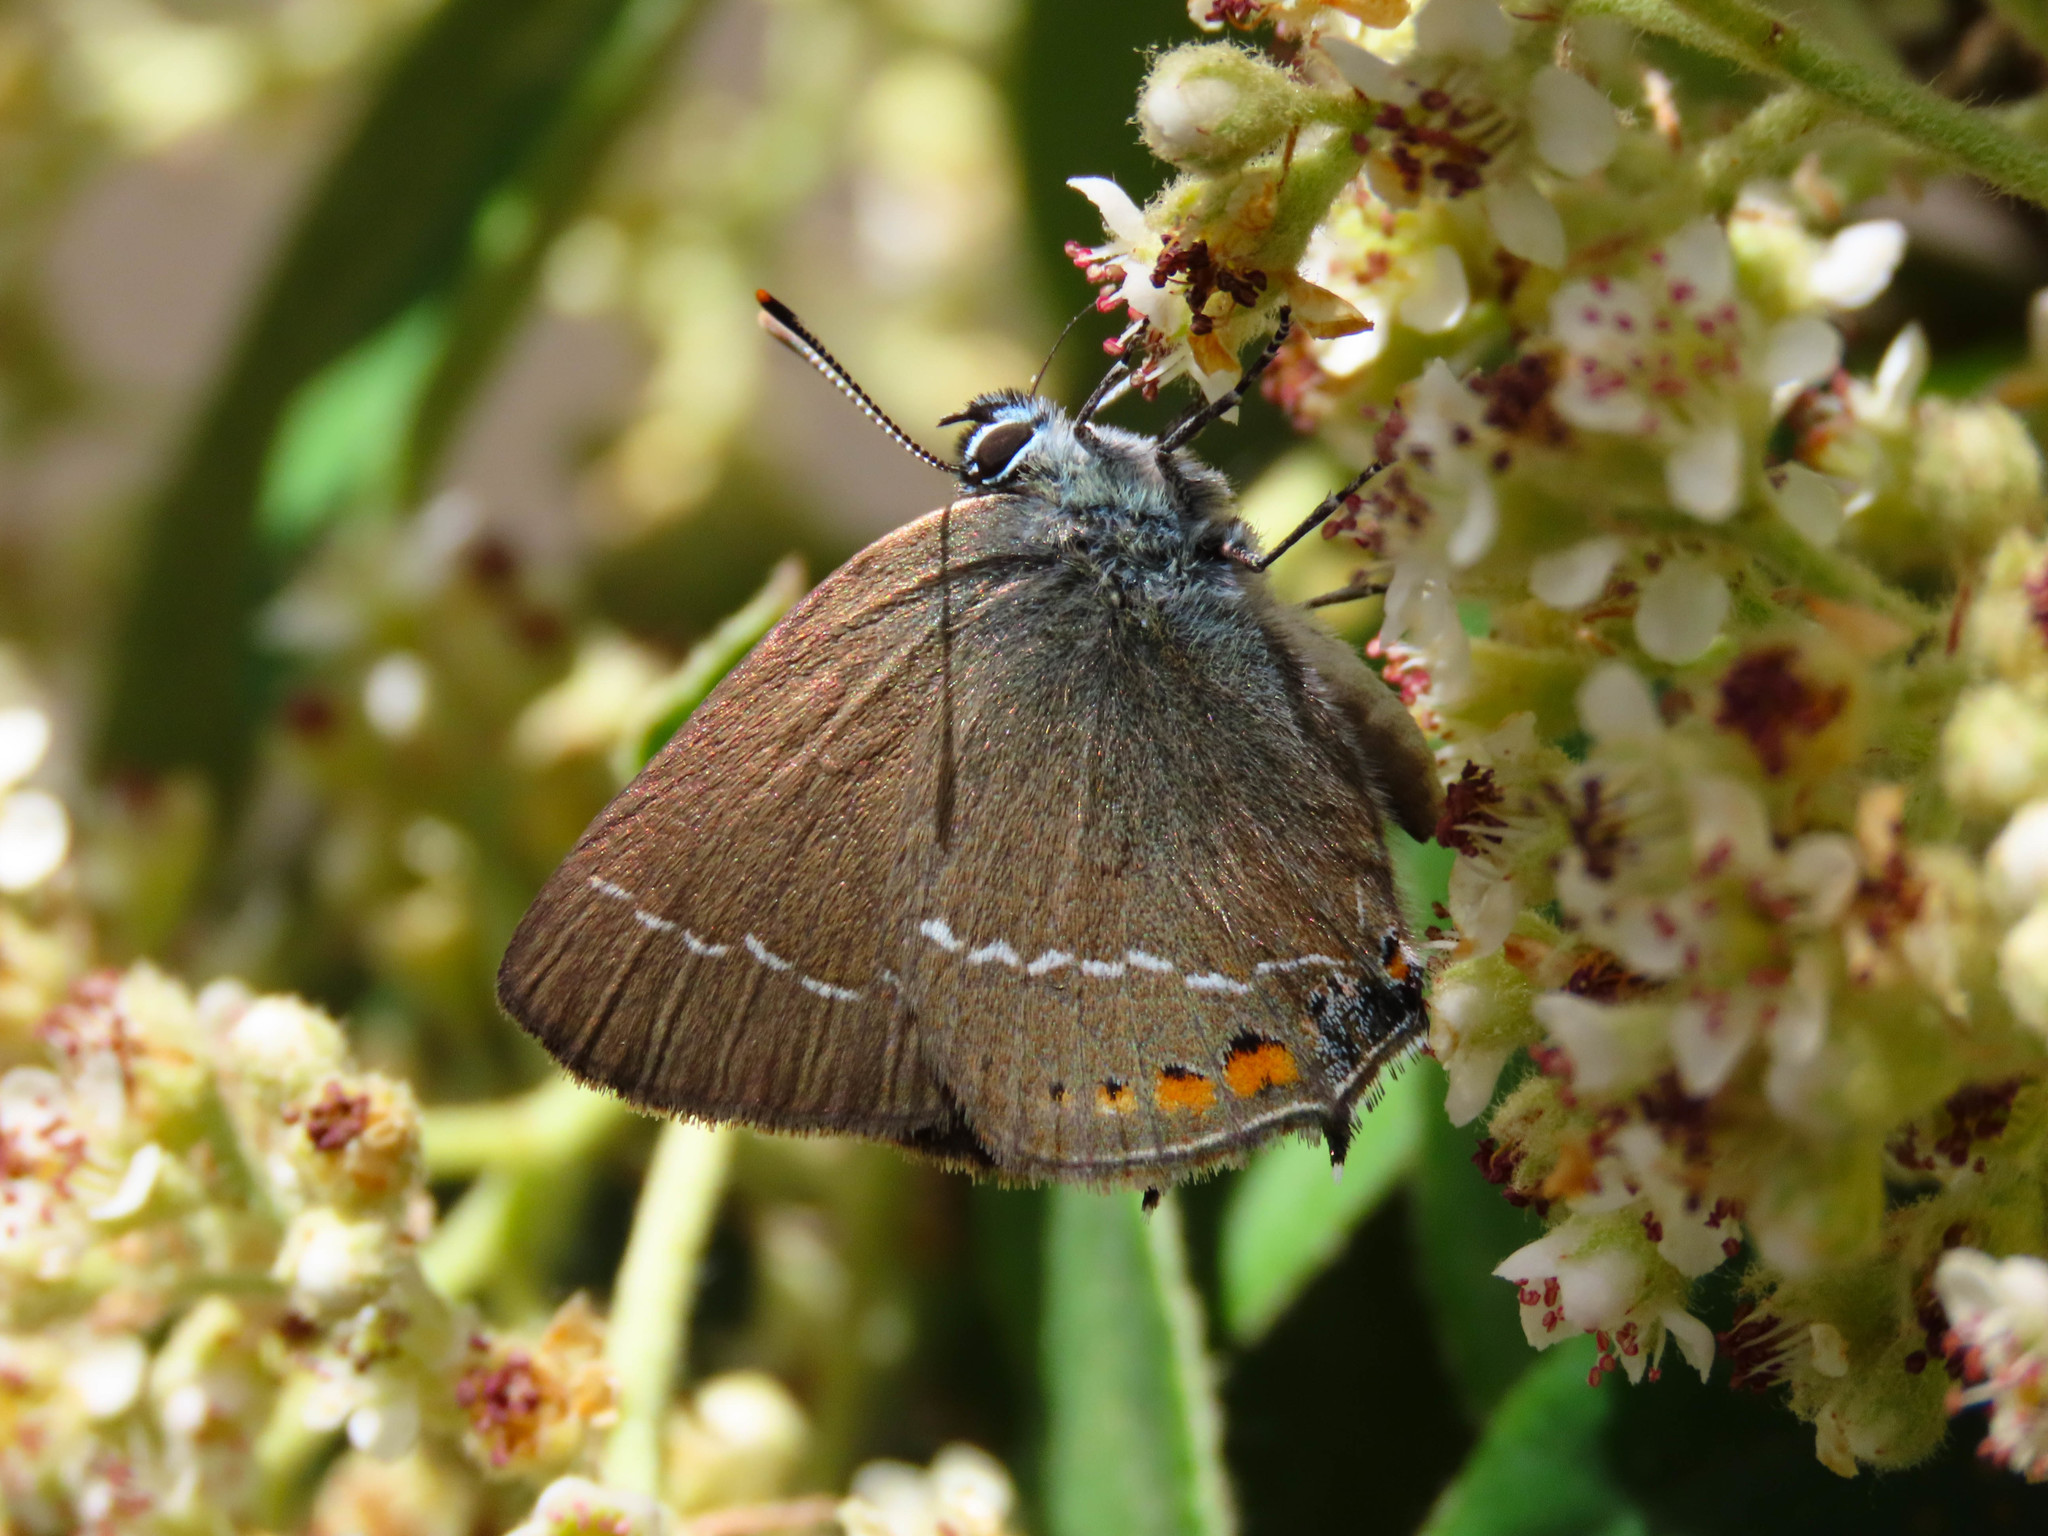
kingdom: Animalia
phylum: Arthropoda
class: Insecta
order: Lepidoptera
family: Lycaenidae
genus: Tuttiola
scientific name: Tuttiola spini
